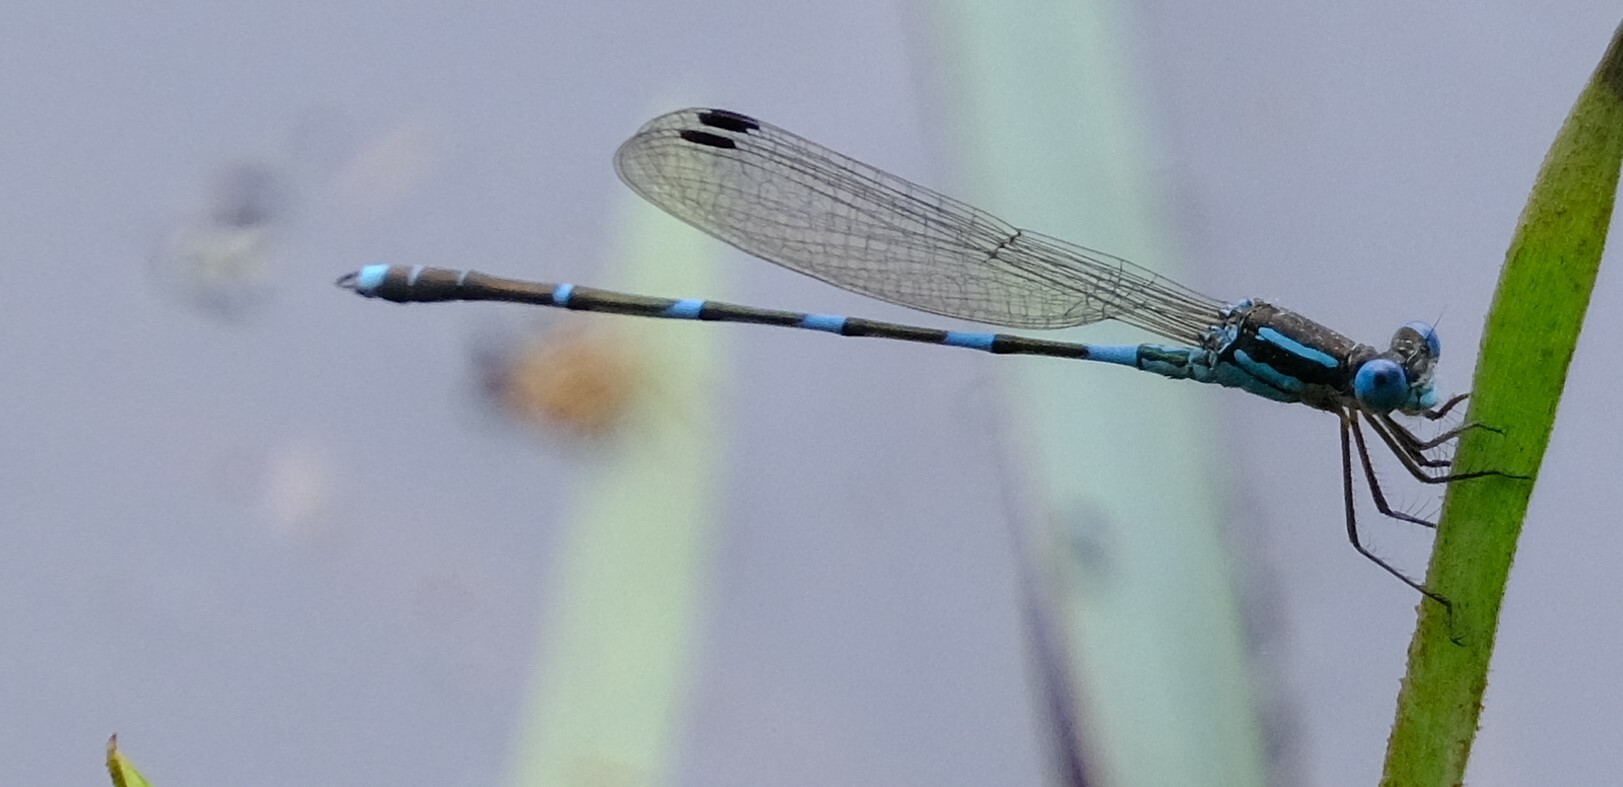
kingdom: Animalia
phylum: Arthropoda
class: Insecta
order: Odonata
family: Lestidae
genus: Austrolestes
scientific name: Austrolestes leda
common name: Wandering ringtail
